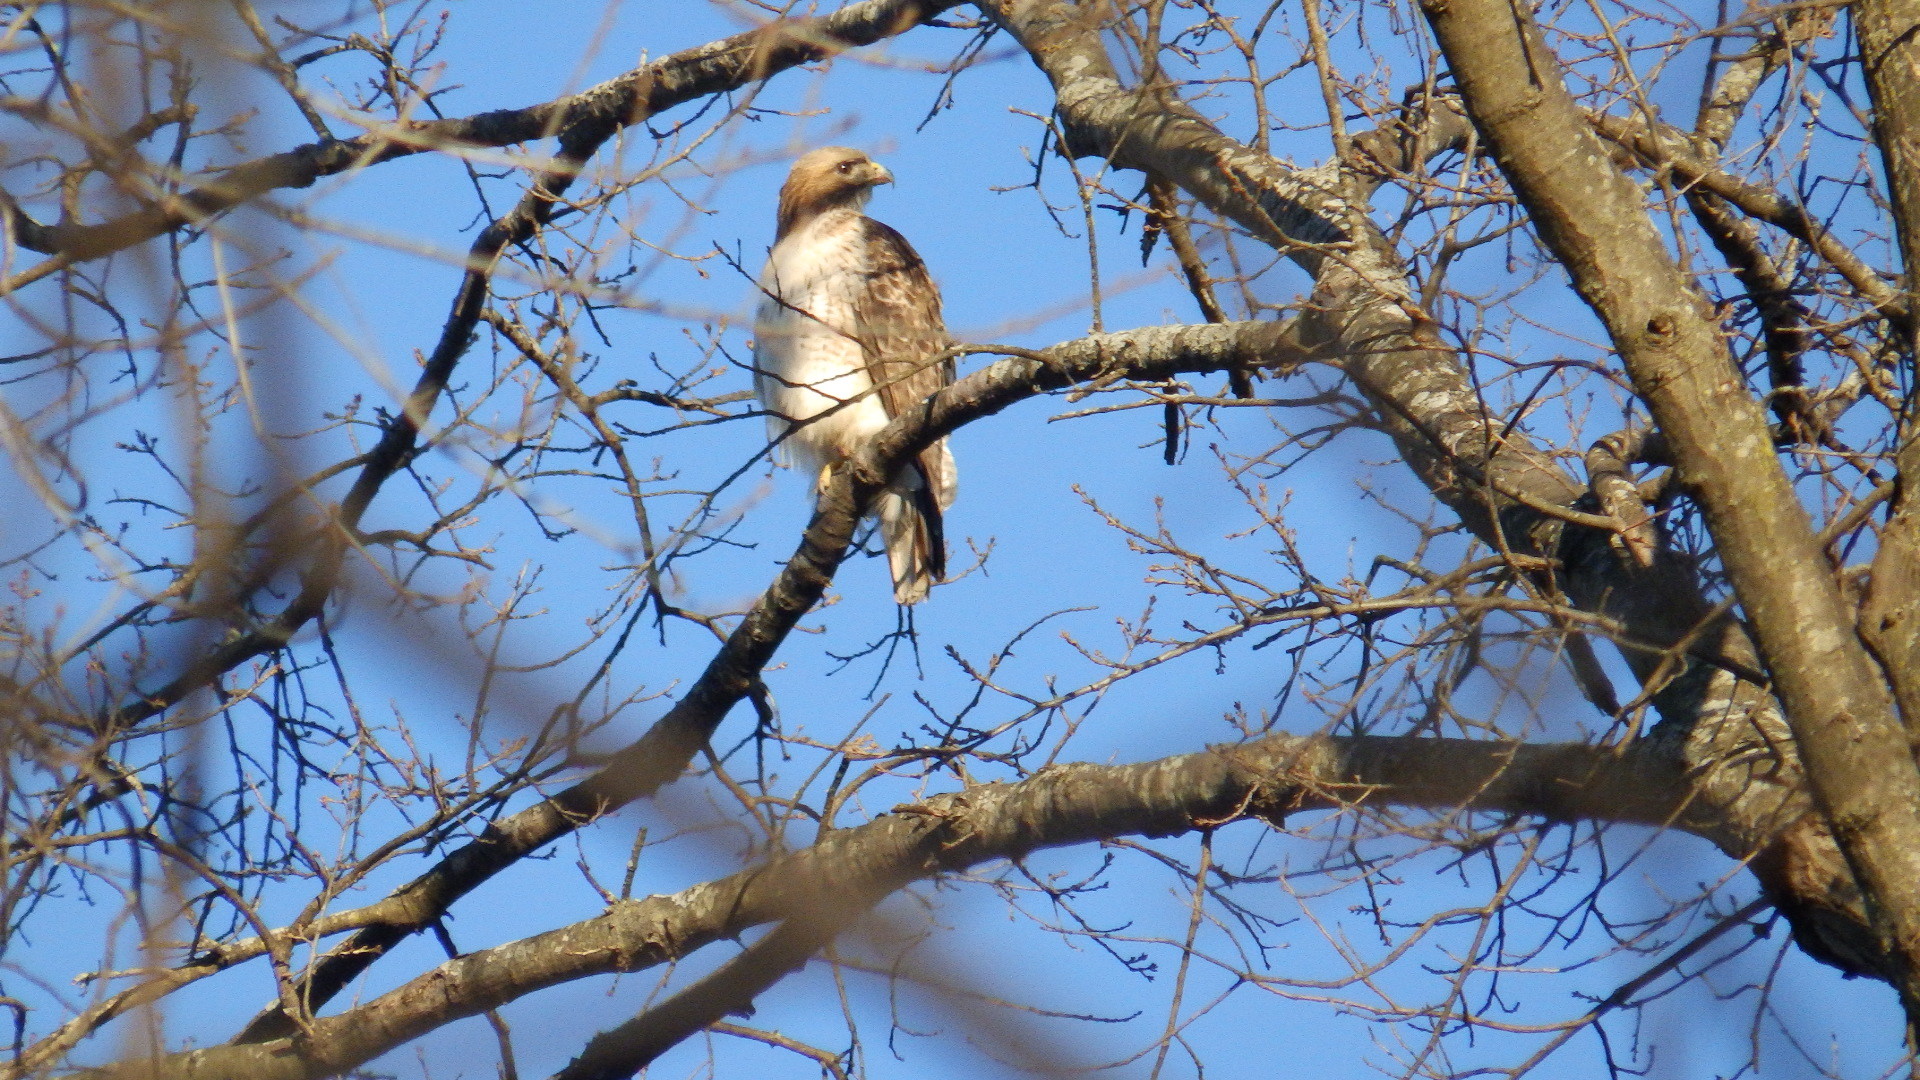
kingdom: Animalia
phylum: Chordata
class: Aves
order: Accipitriformes
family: Accipitridae
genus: Buteo
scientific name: Buteo jamaicensis
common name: Red-tailed hawk
